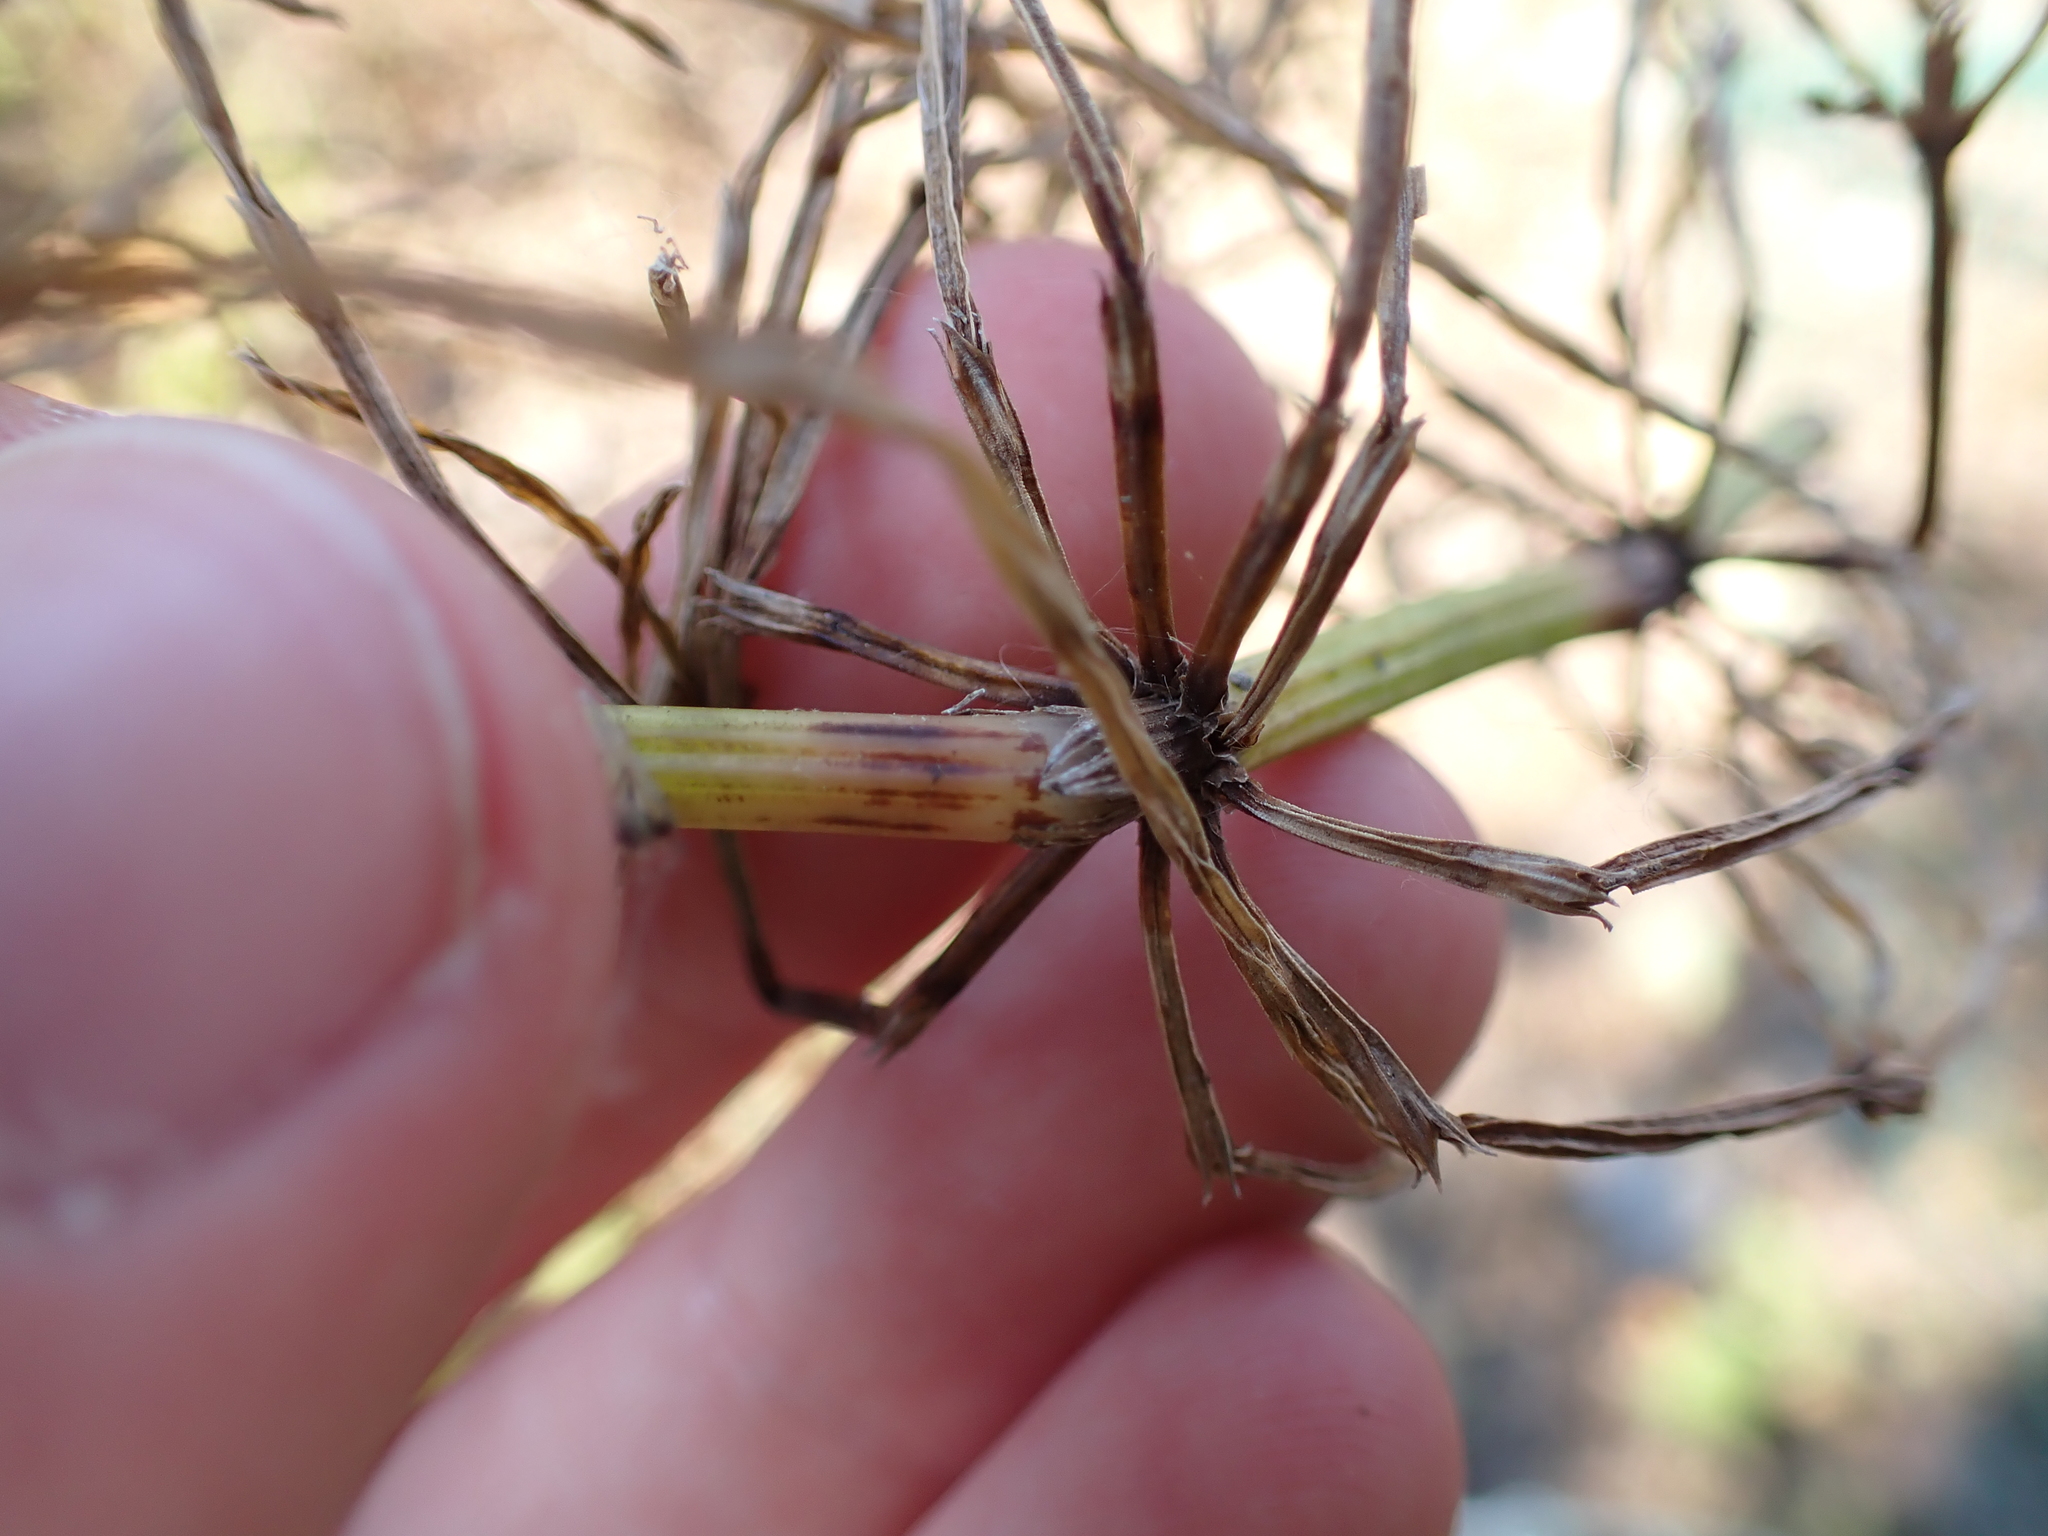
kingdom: Plantae
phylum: Tracheophyta
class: Polypodiopsida
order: Equisetales
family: Equisetaceae
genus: Equisetum
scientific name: Equisetum arvense
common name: Field horsetail
